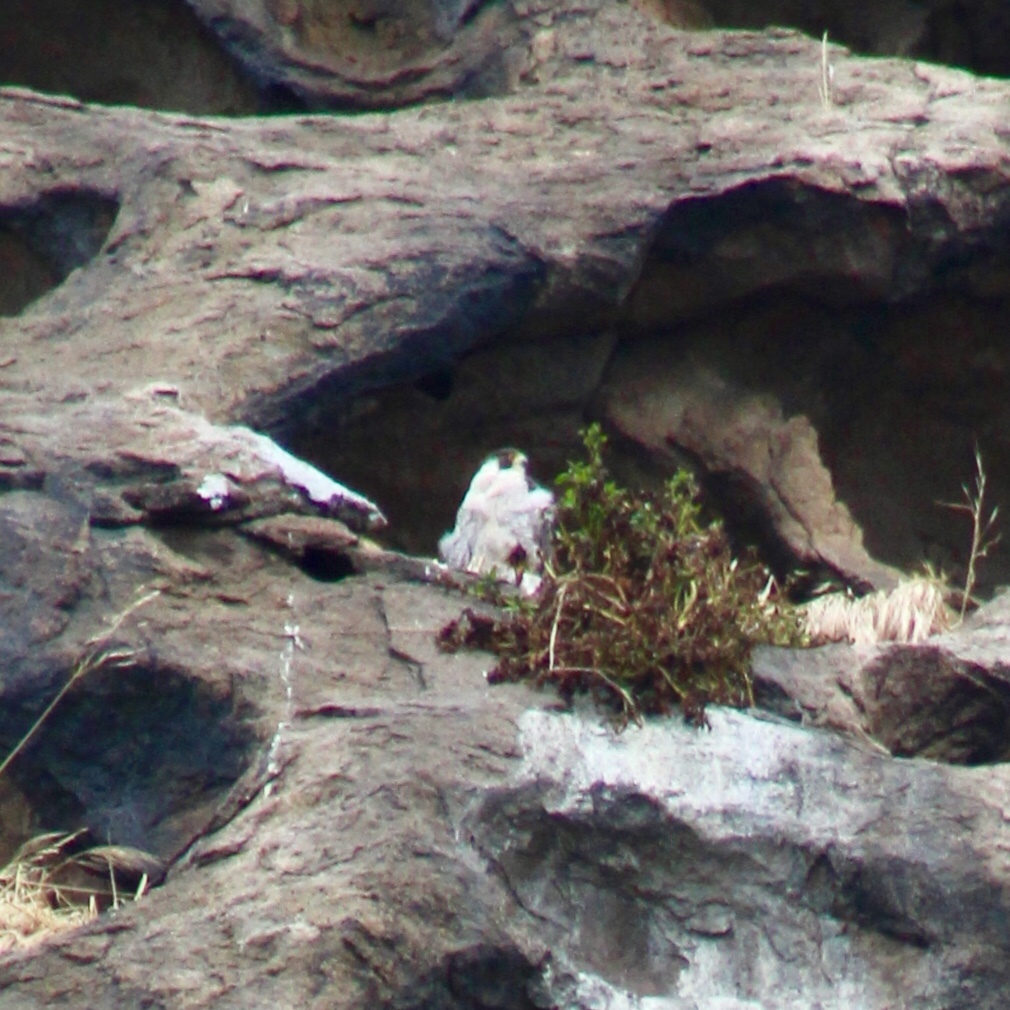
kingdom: Animalia
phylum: Chordata
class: Aves
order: Falconiformes
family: Falconidae
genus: Falco
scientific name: Falco peregrinus
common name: Peregrine falcon
